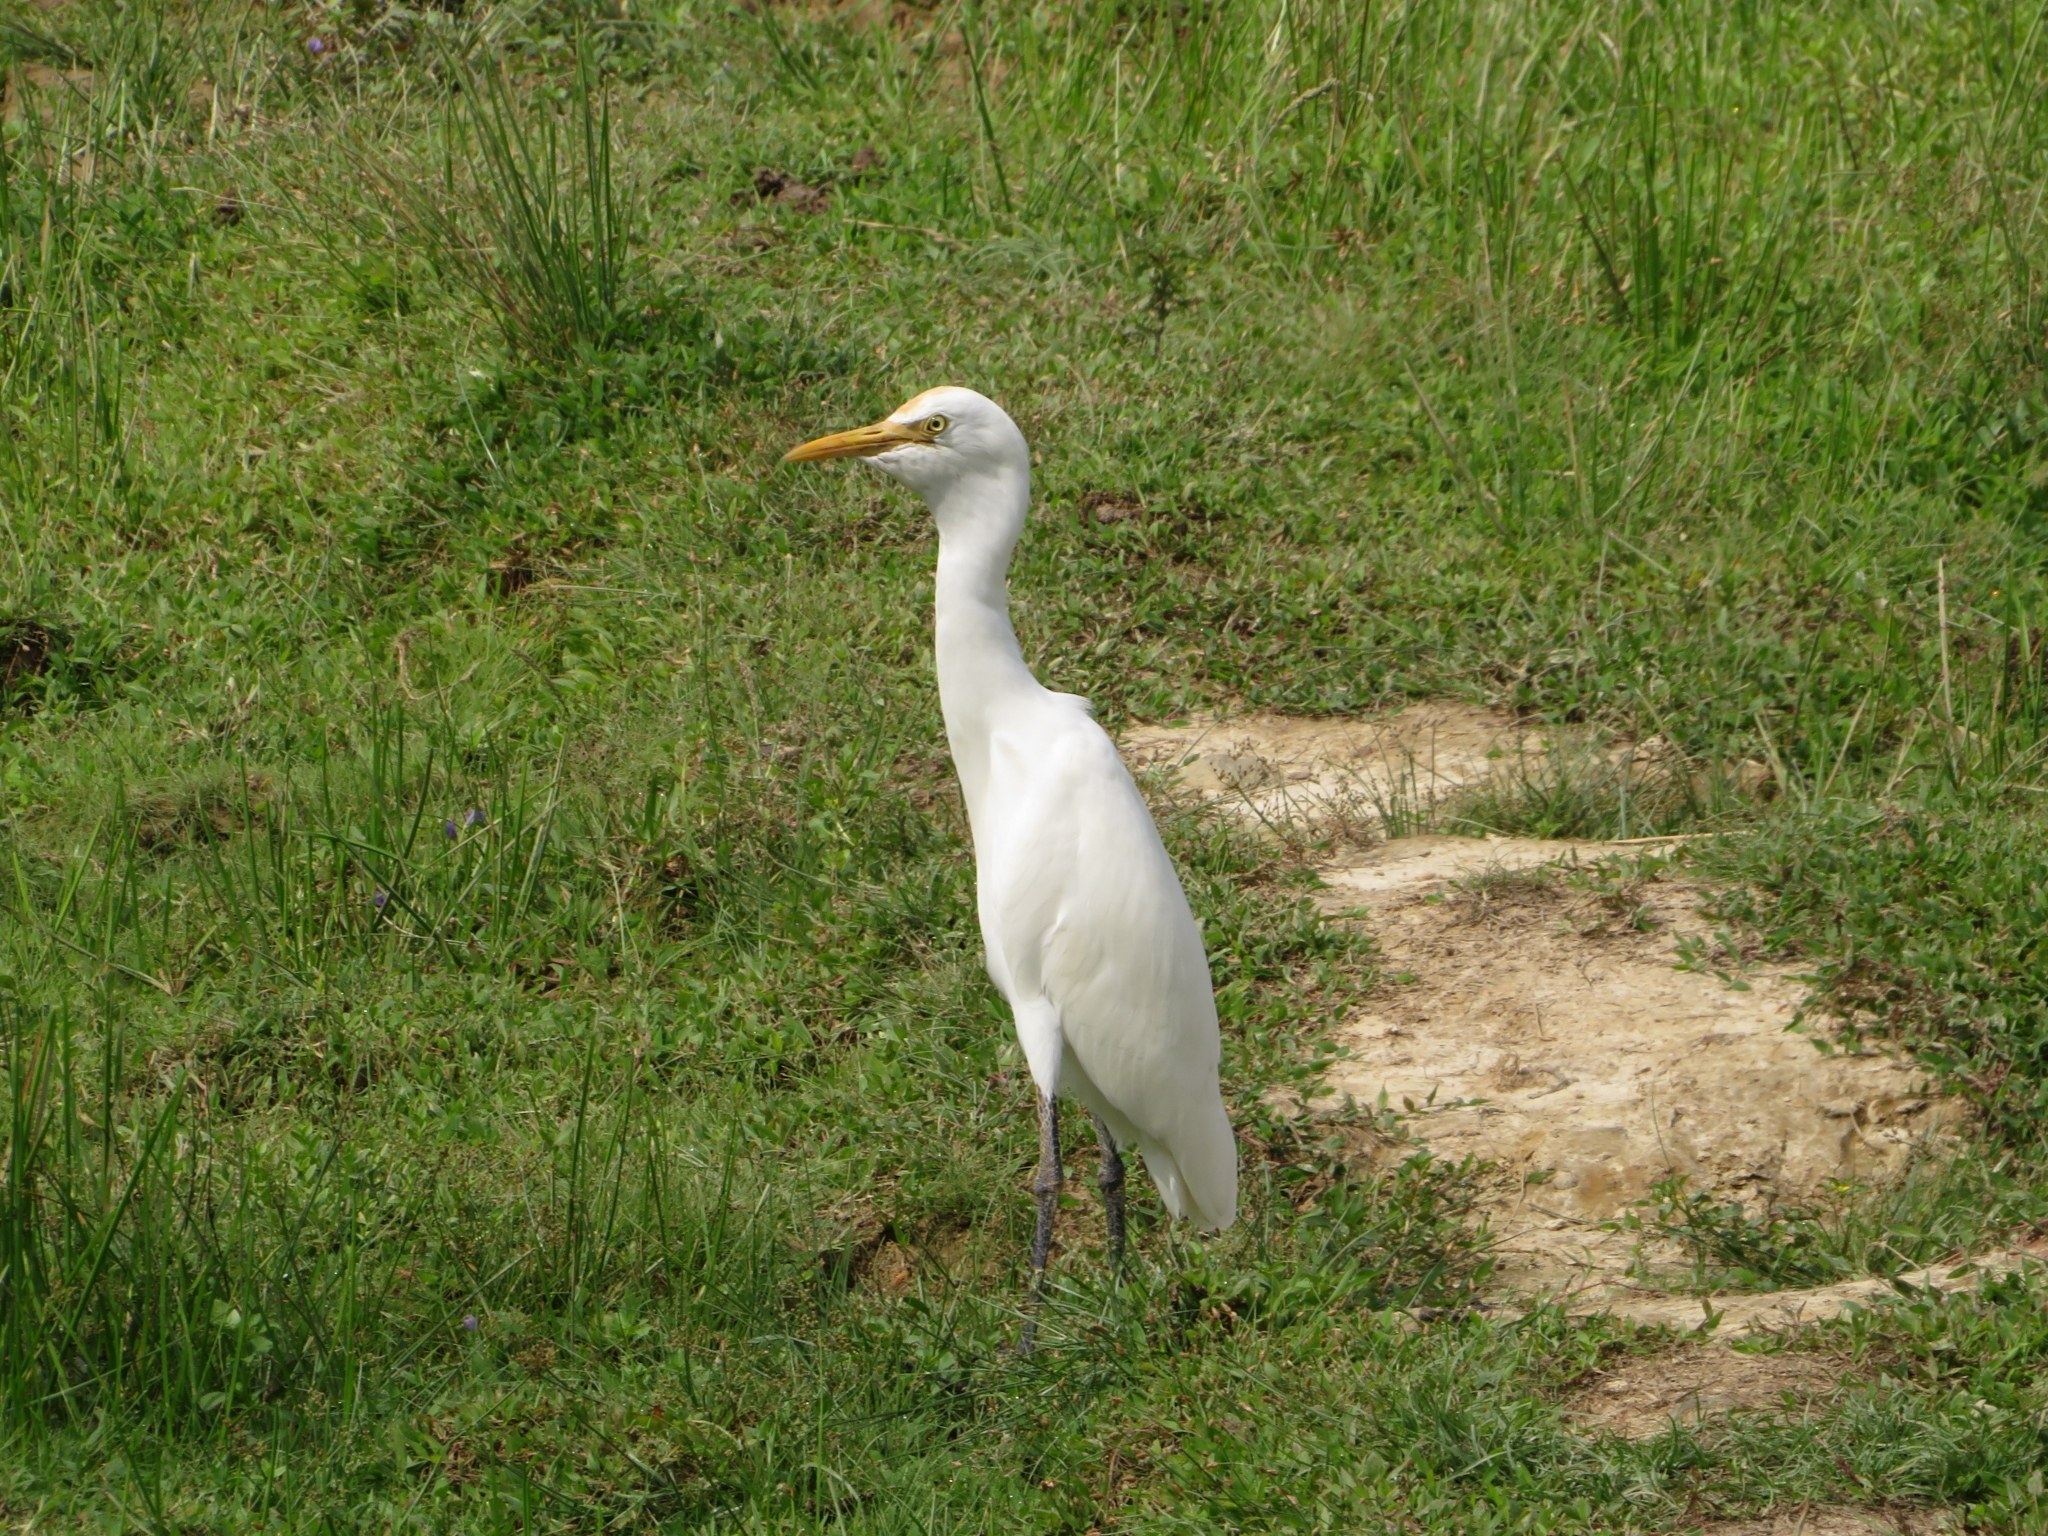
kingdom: Animalia
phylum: Chordata
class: Aves
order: Pelecaniformes
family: Ardeidae
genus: Bubulcus
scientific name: Bubulcus coromandus
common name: Eastern cattle egret
